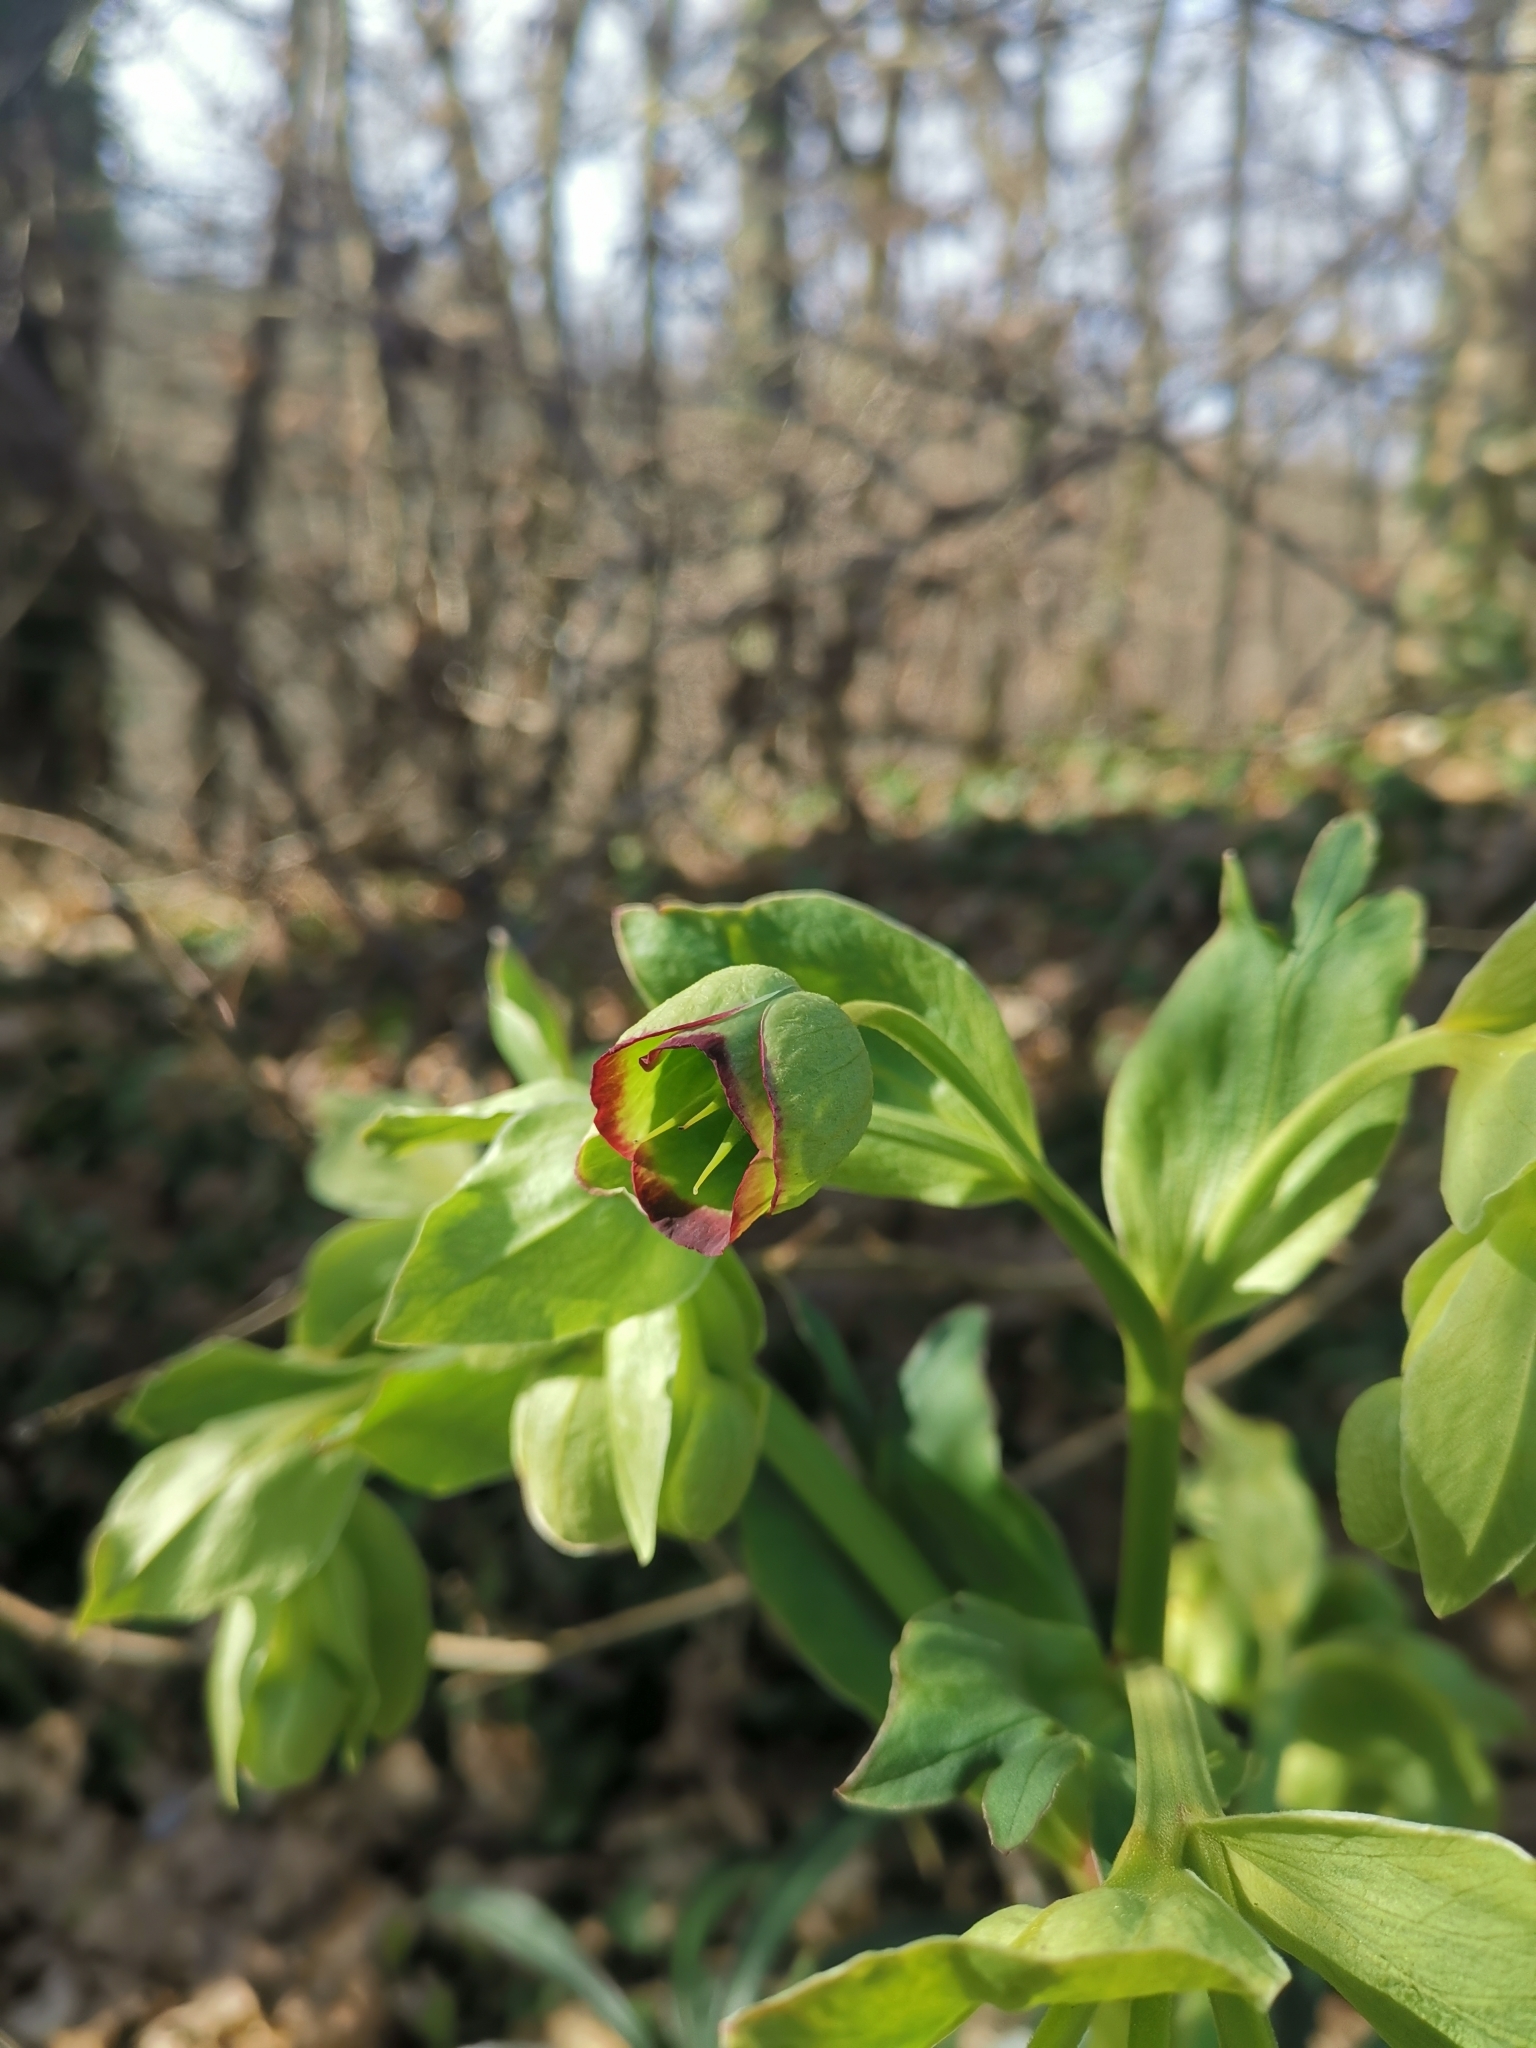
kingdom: Plantae
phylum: Tracheophyta
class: Magnoliopsida
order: Ranunculales
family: Ranunculaceae
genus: Helleborus
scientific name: Helleborus foetidus
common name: Stinking hellebore
